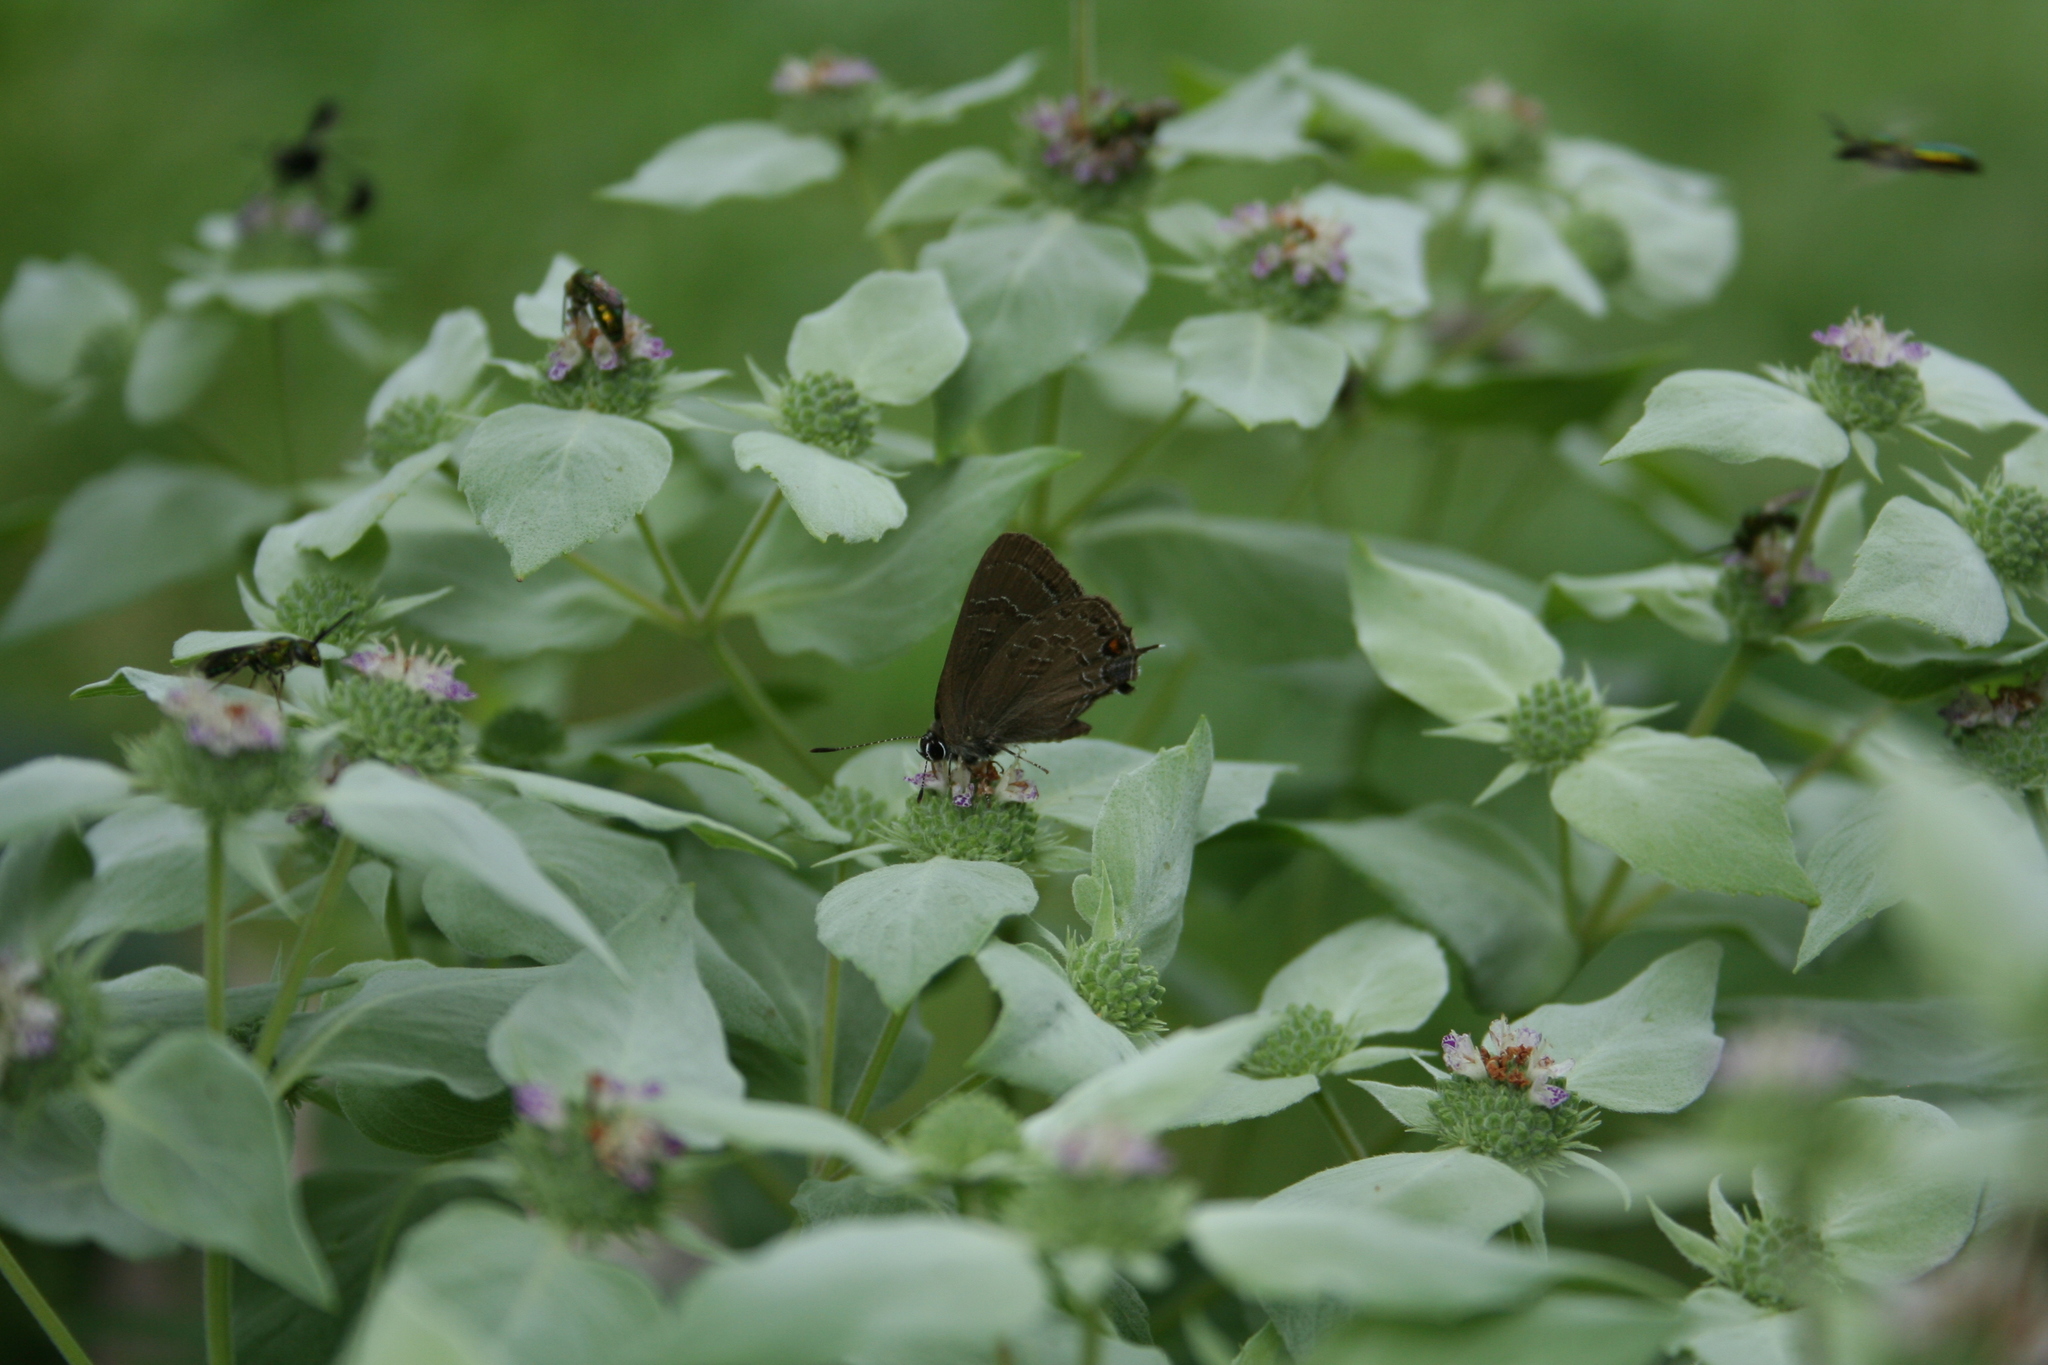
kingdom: Animalia
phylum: Arthropoda
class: Insecta
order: Lepidoptera
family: Lycaenidae
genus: Satyrium
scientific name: Satyrium calanus
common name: Banded hairstreak
